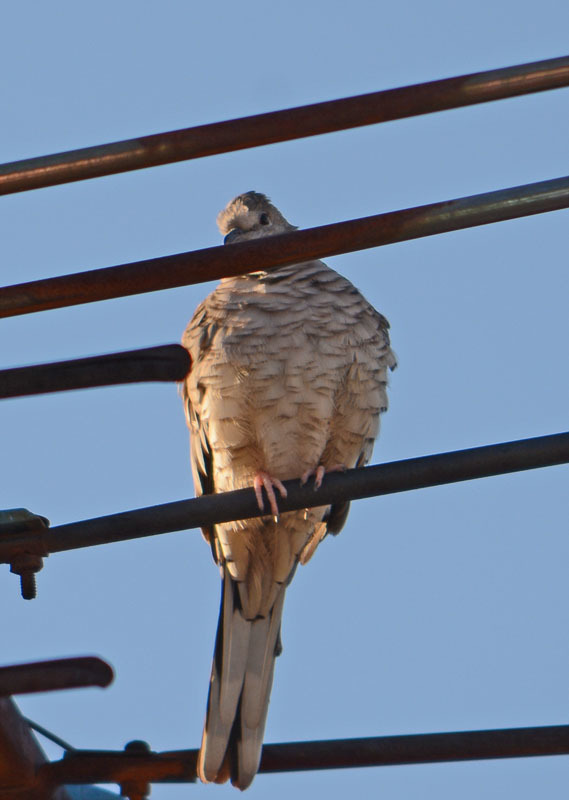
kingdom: Animalia
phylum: Chordata
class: Aves
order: Columbiformes
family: Columbidae
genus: Columbina
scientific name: Columbina inca
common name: Inca dove
